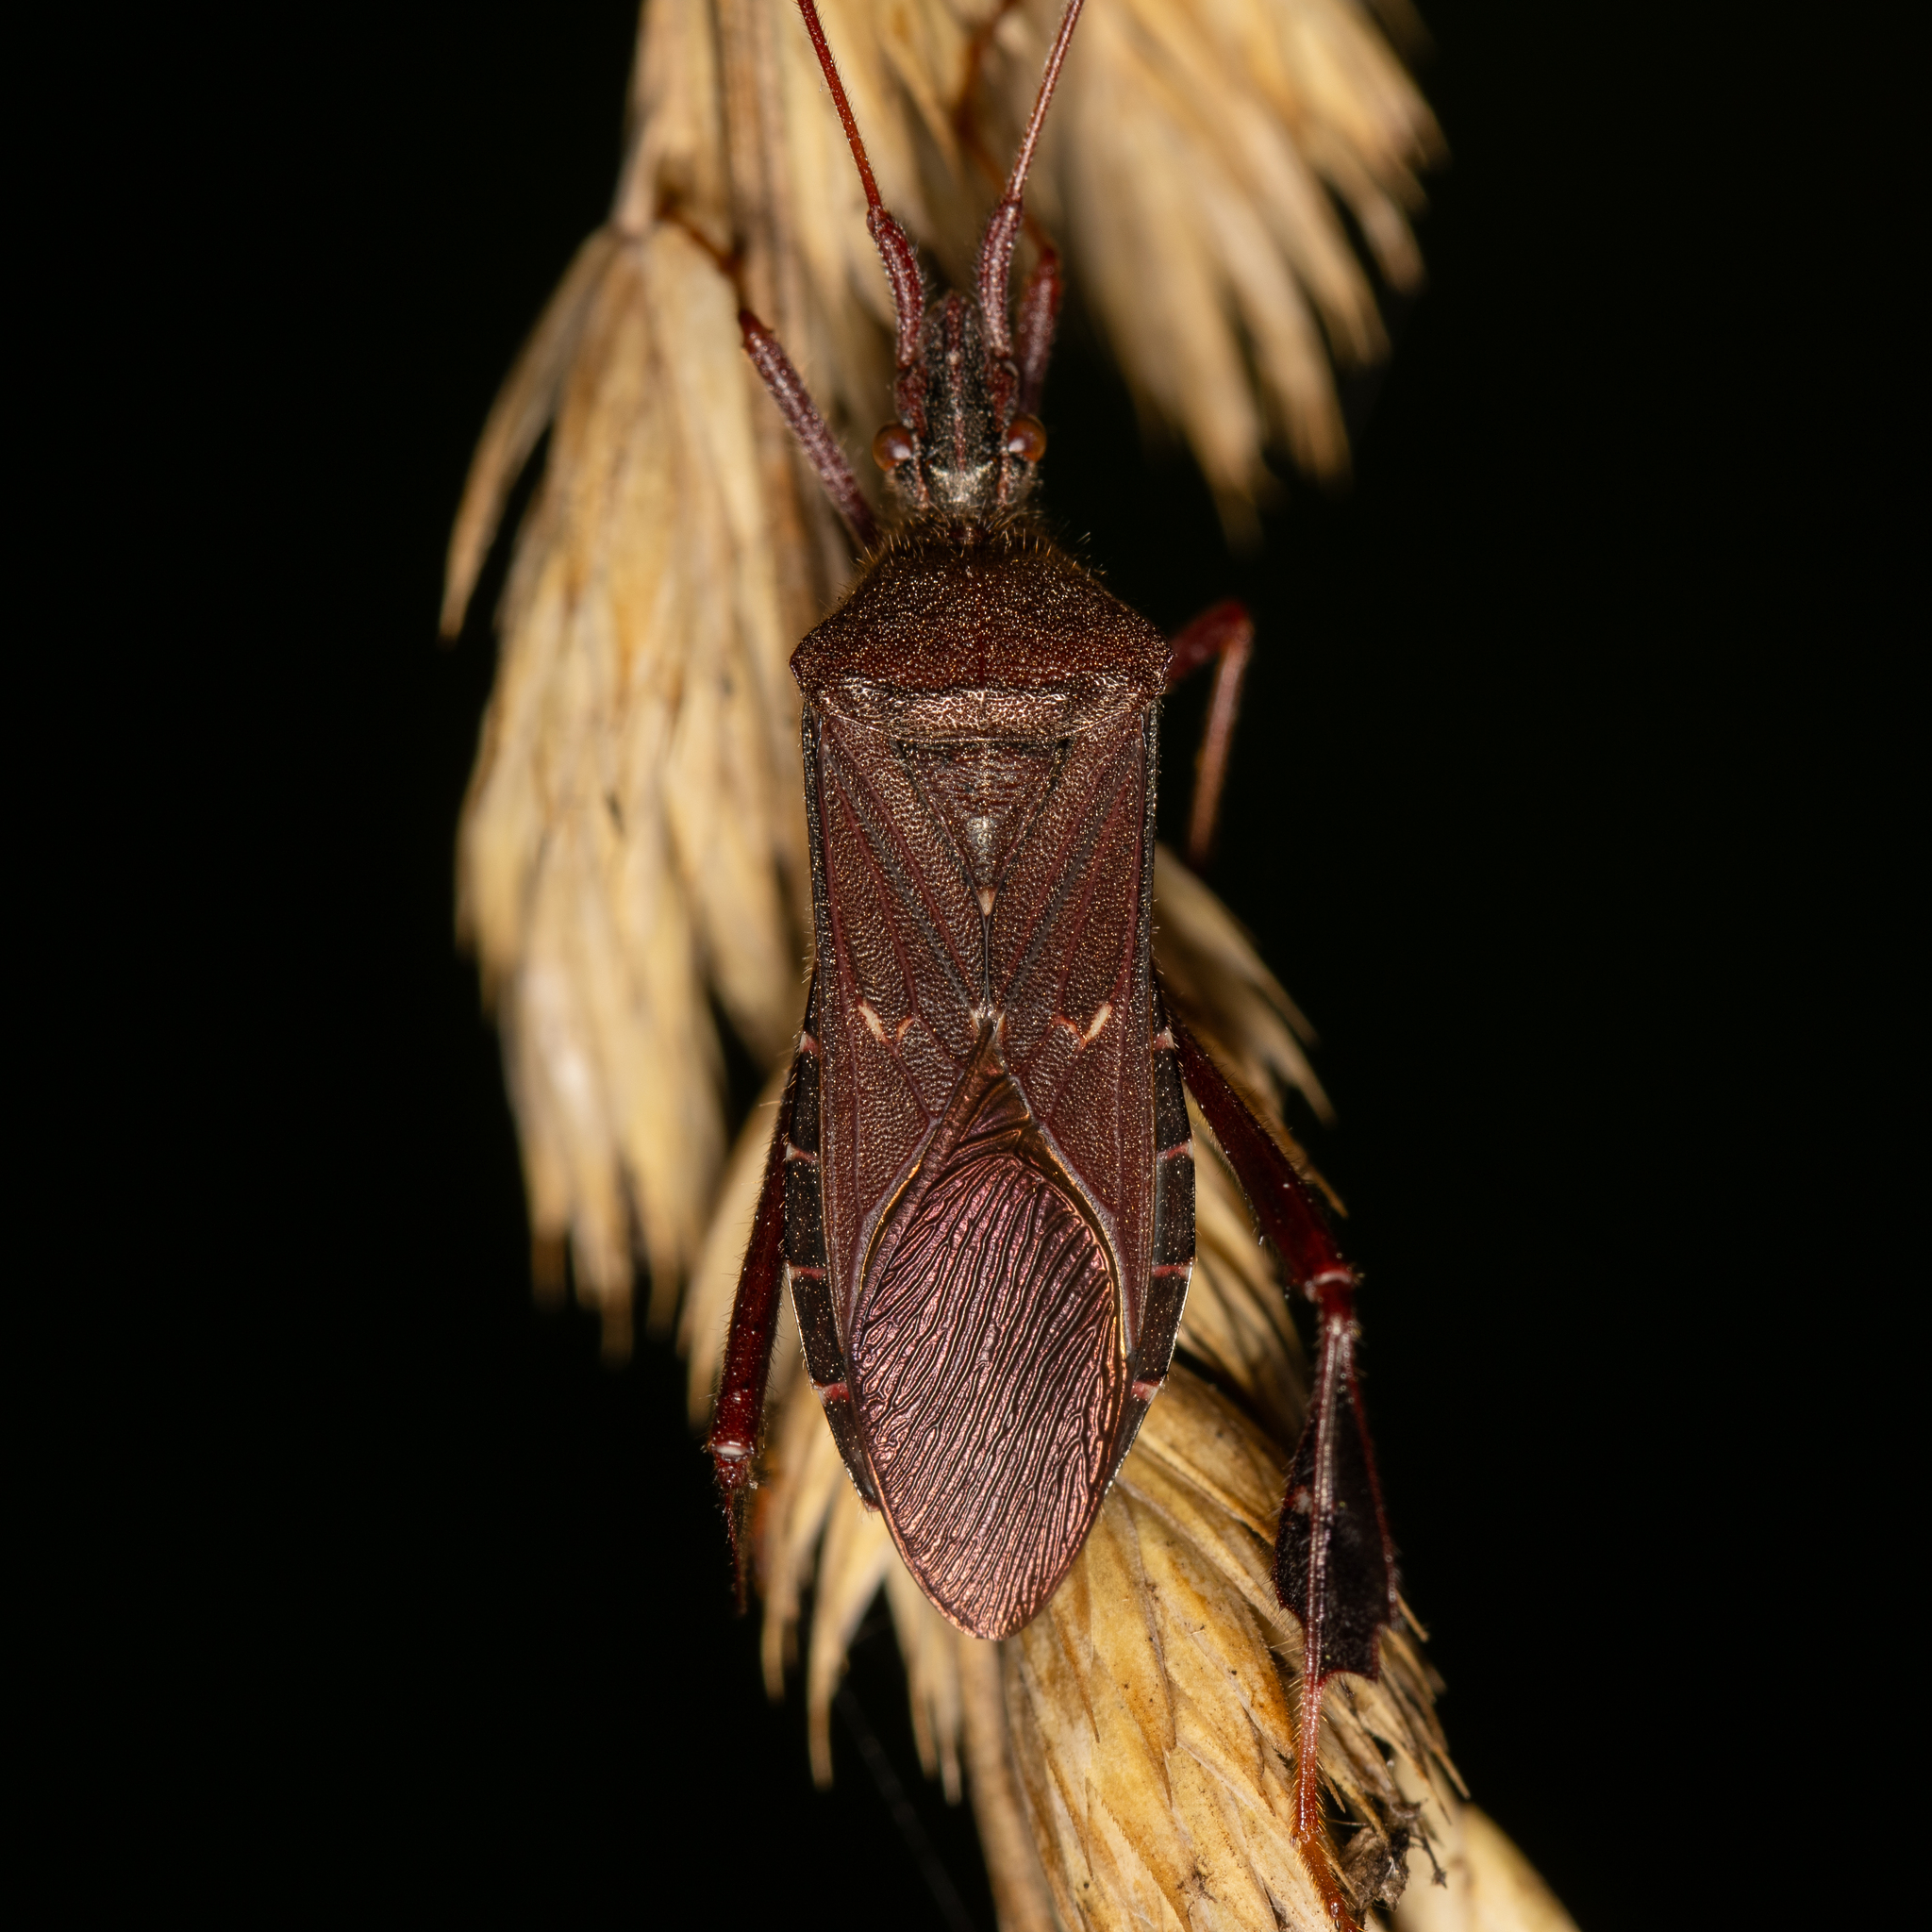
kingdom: Animalia
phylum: Arthropoda
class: Insecta
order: Hemiptera
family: Coreidae
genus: Leptoglossus
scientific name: Leptoglossus oppositus
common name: Northern leaf-footed bug
